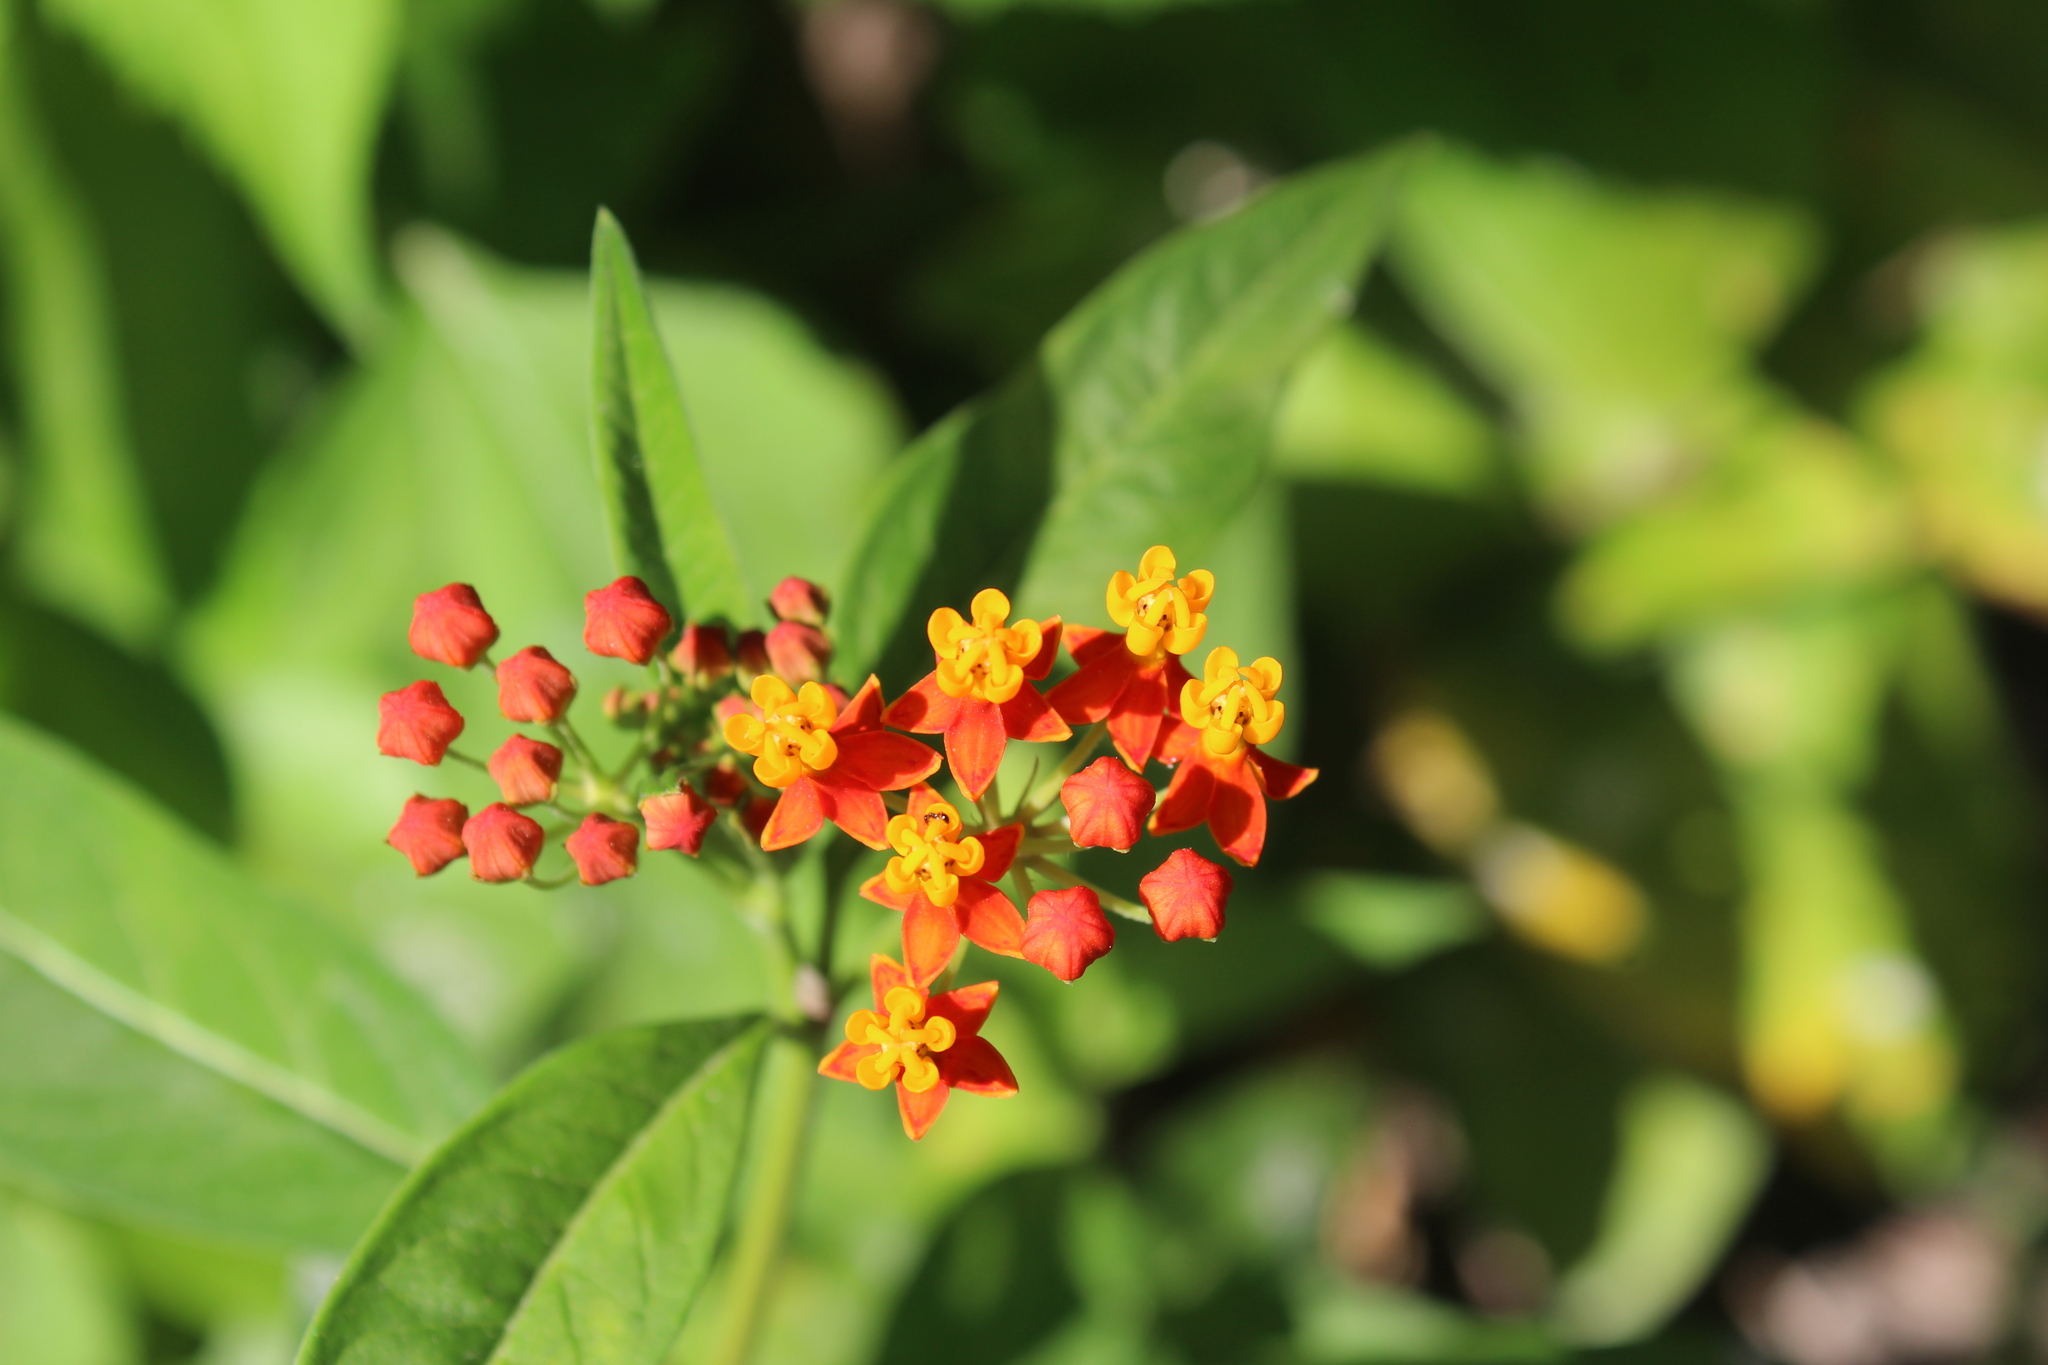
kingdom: Plantae
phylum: Tracheophyta
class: Magnoliopsida
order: Gentianales
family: Apocynaceae
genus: Asclepias
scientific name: Asclepias curassavica
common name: Bloodflower
